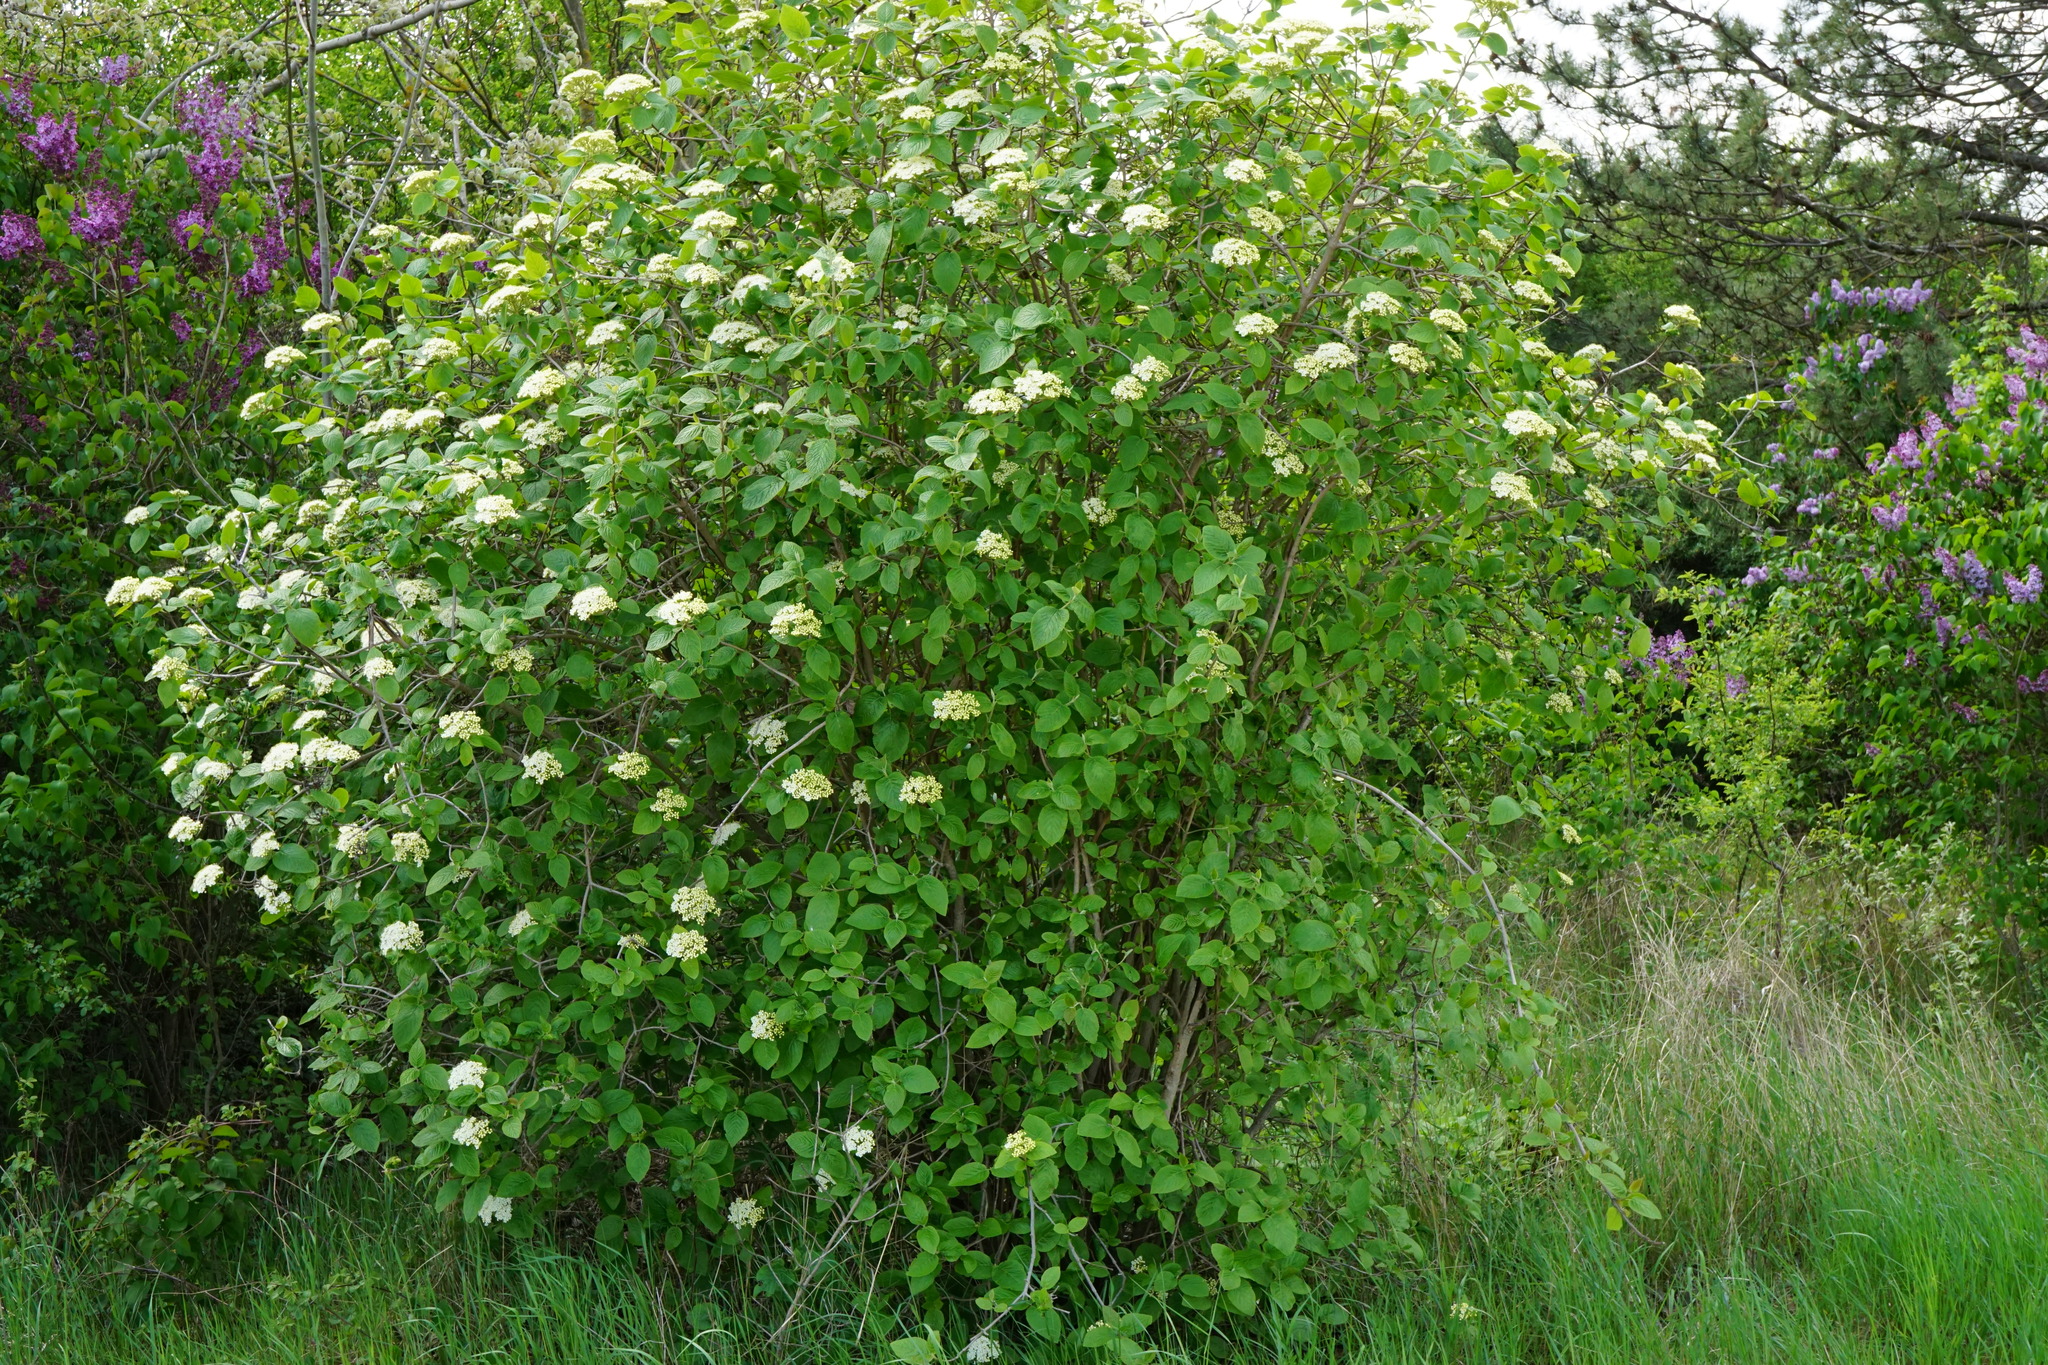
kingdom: Plantae
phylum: Tracheophyta
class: Magnoliopsida
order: Dipsacales
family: Viburnaceae
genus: Viburnum
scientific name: Viburnum lantana
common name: Wayfaring tree
